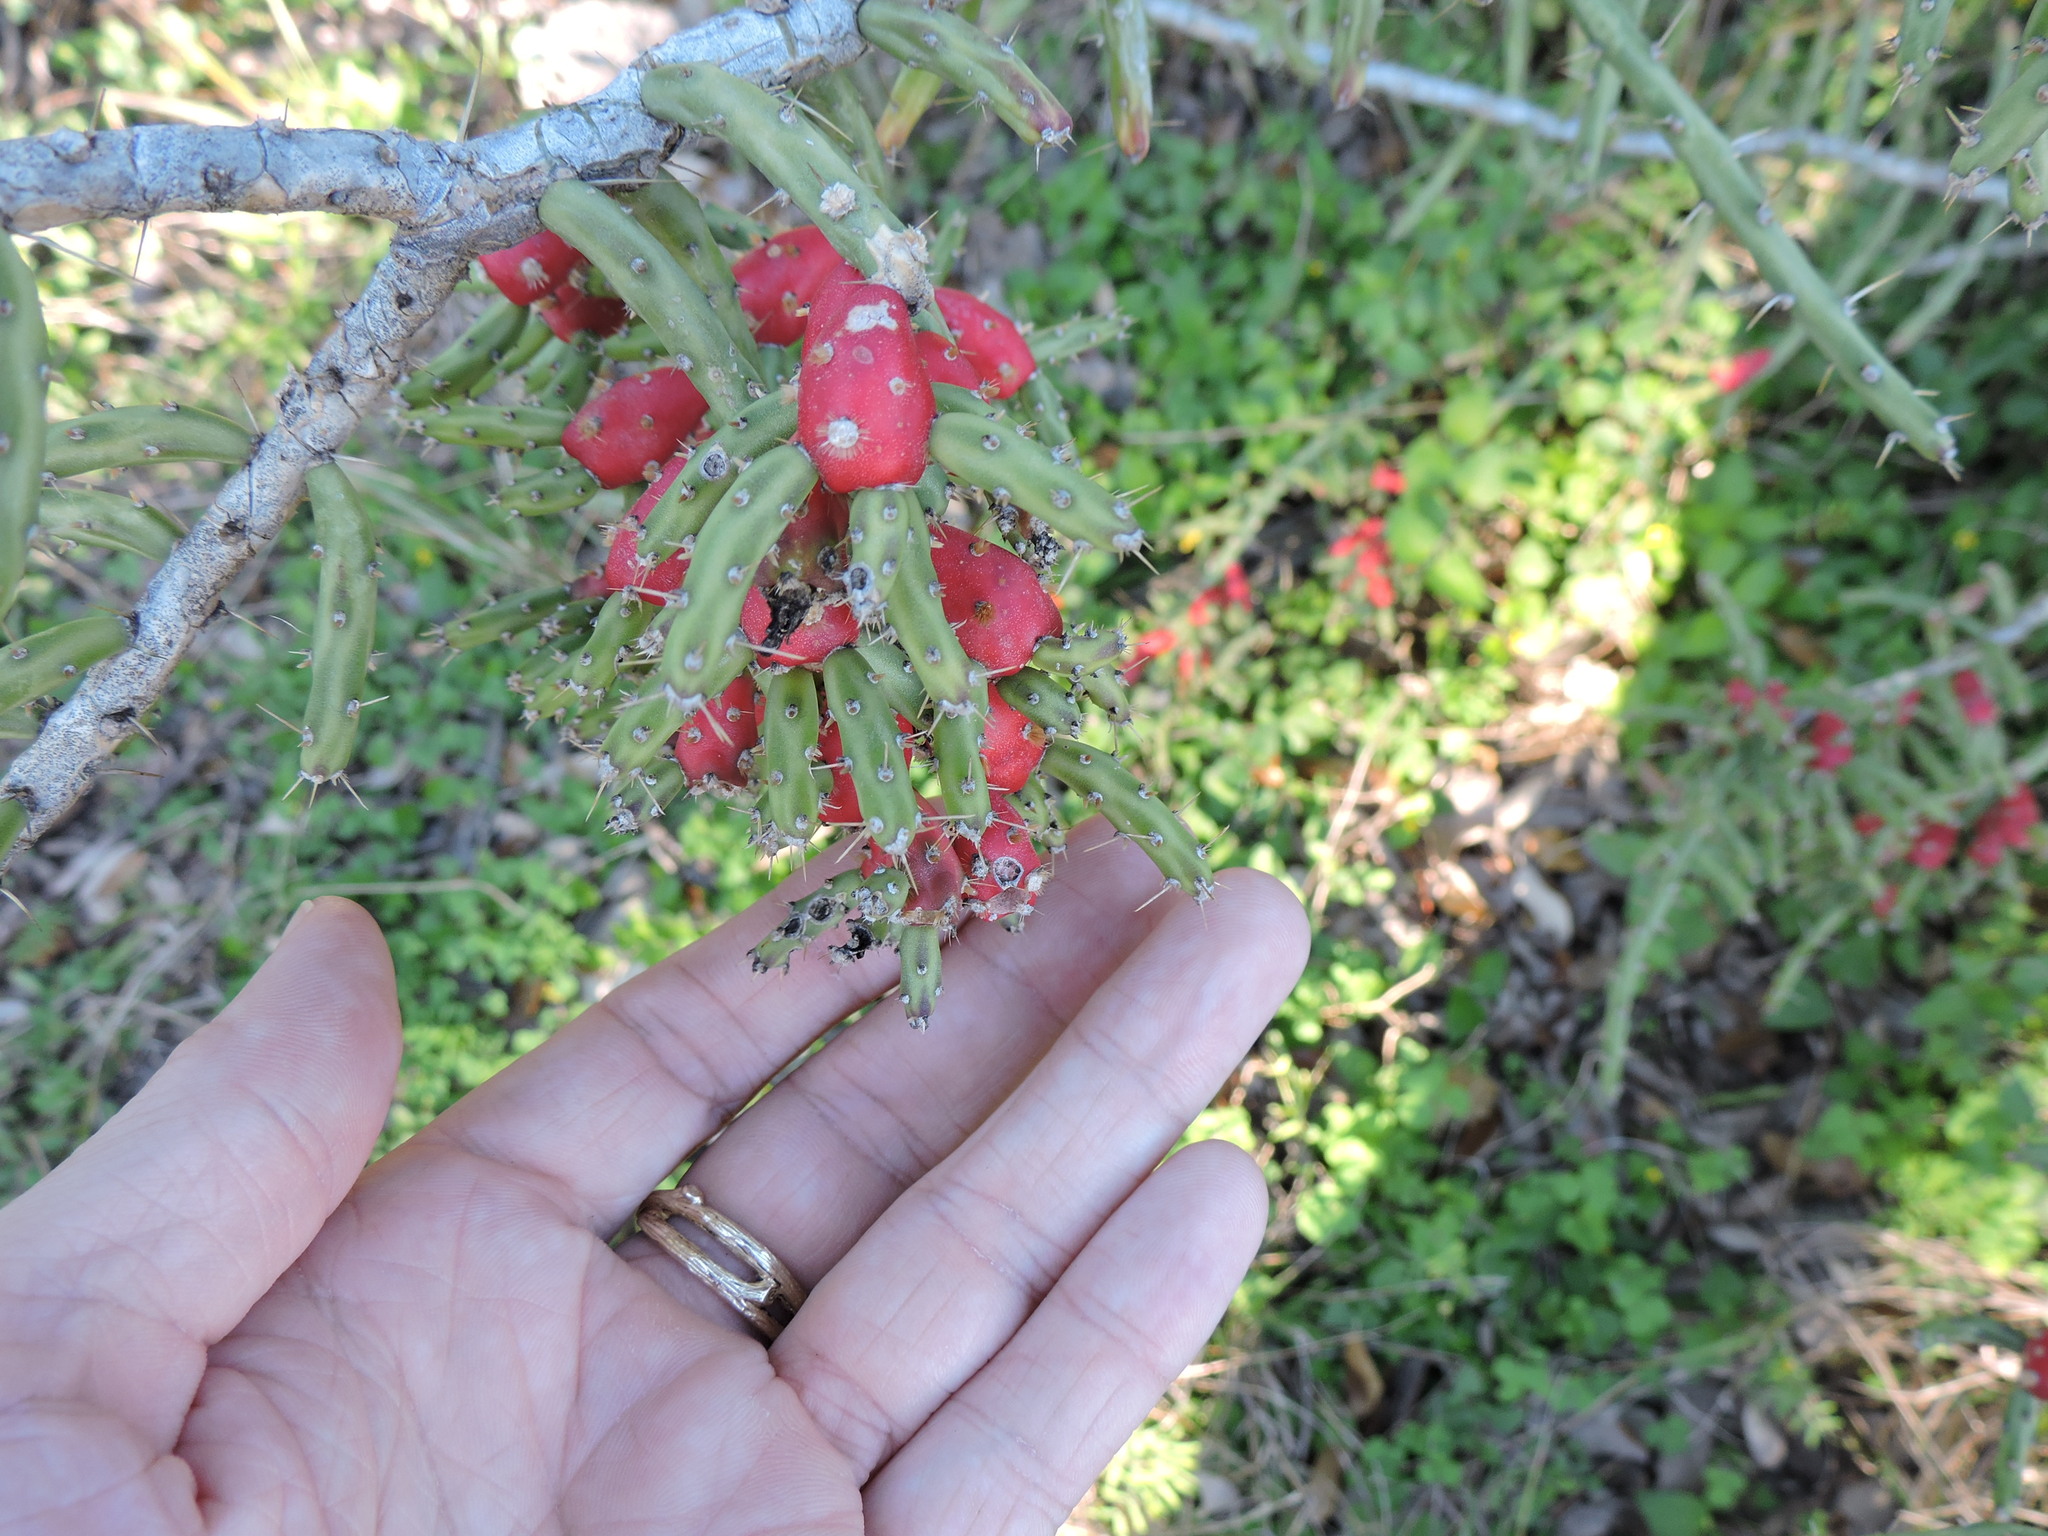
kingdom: Plantae
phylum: Tracheophyta
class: Magnoliopsida
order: Caryophyllales
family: Cactaceae
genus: Cylindropuntia
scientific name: Cylindropuntia leptocaulis
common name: Christmas cactus
